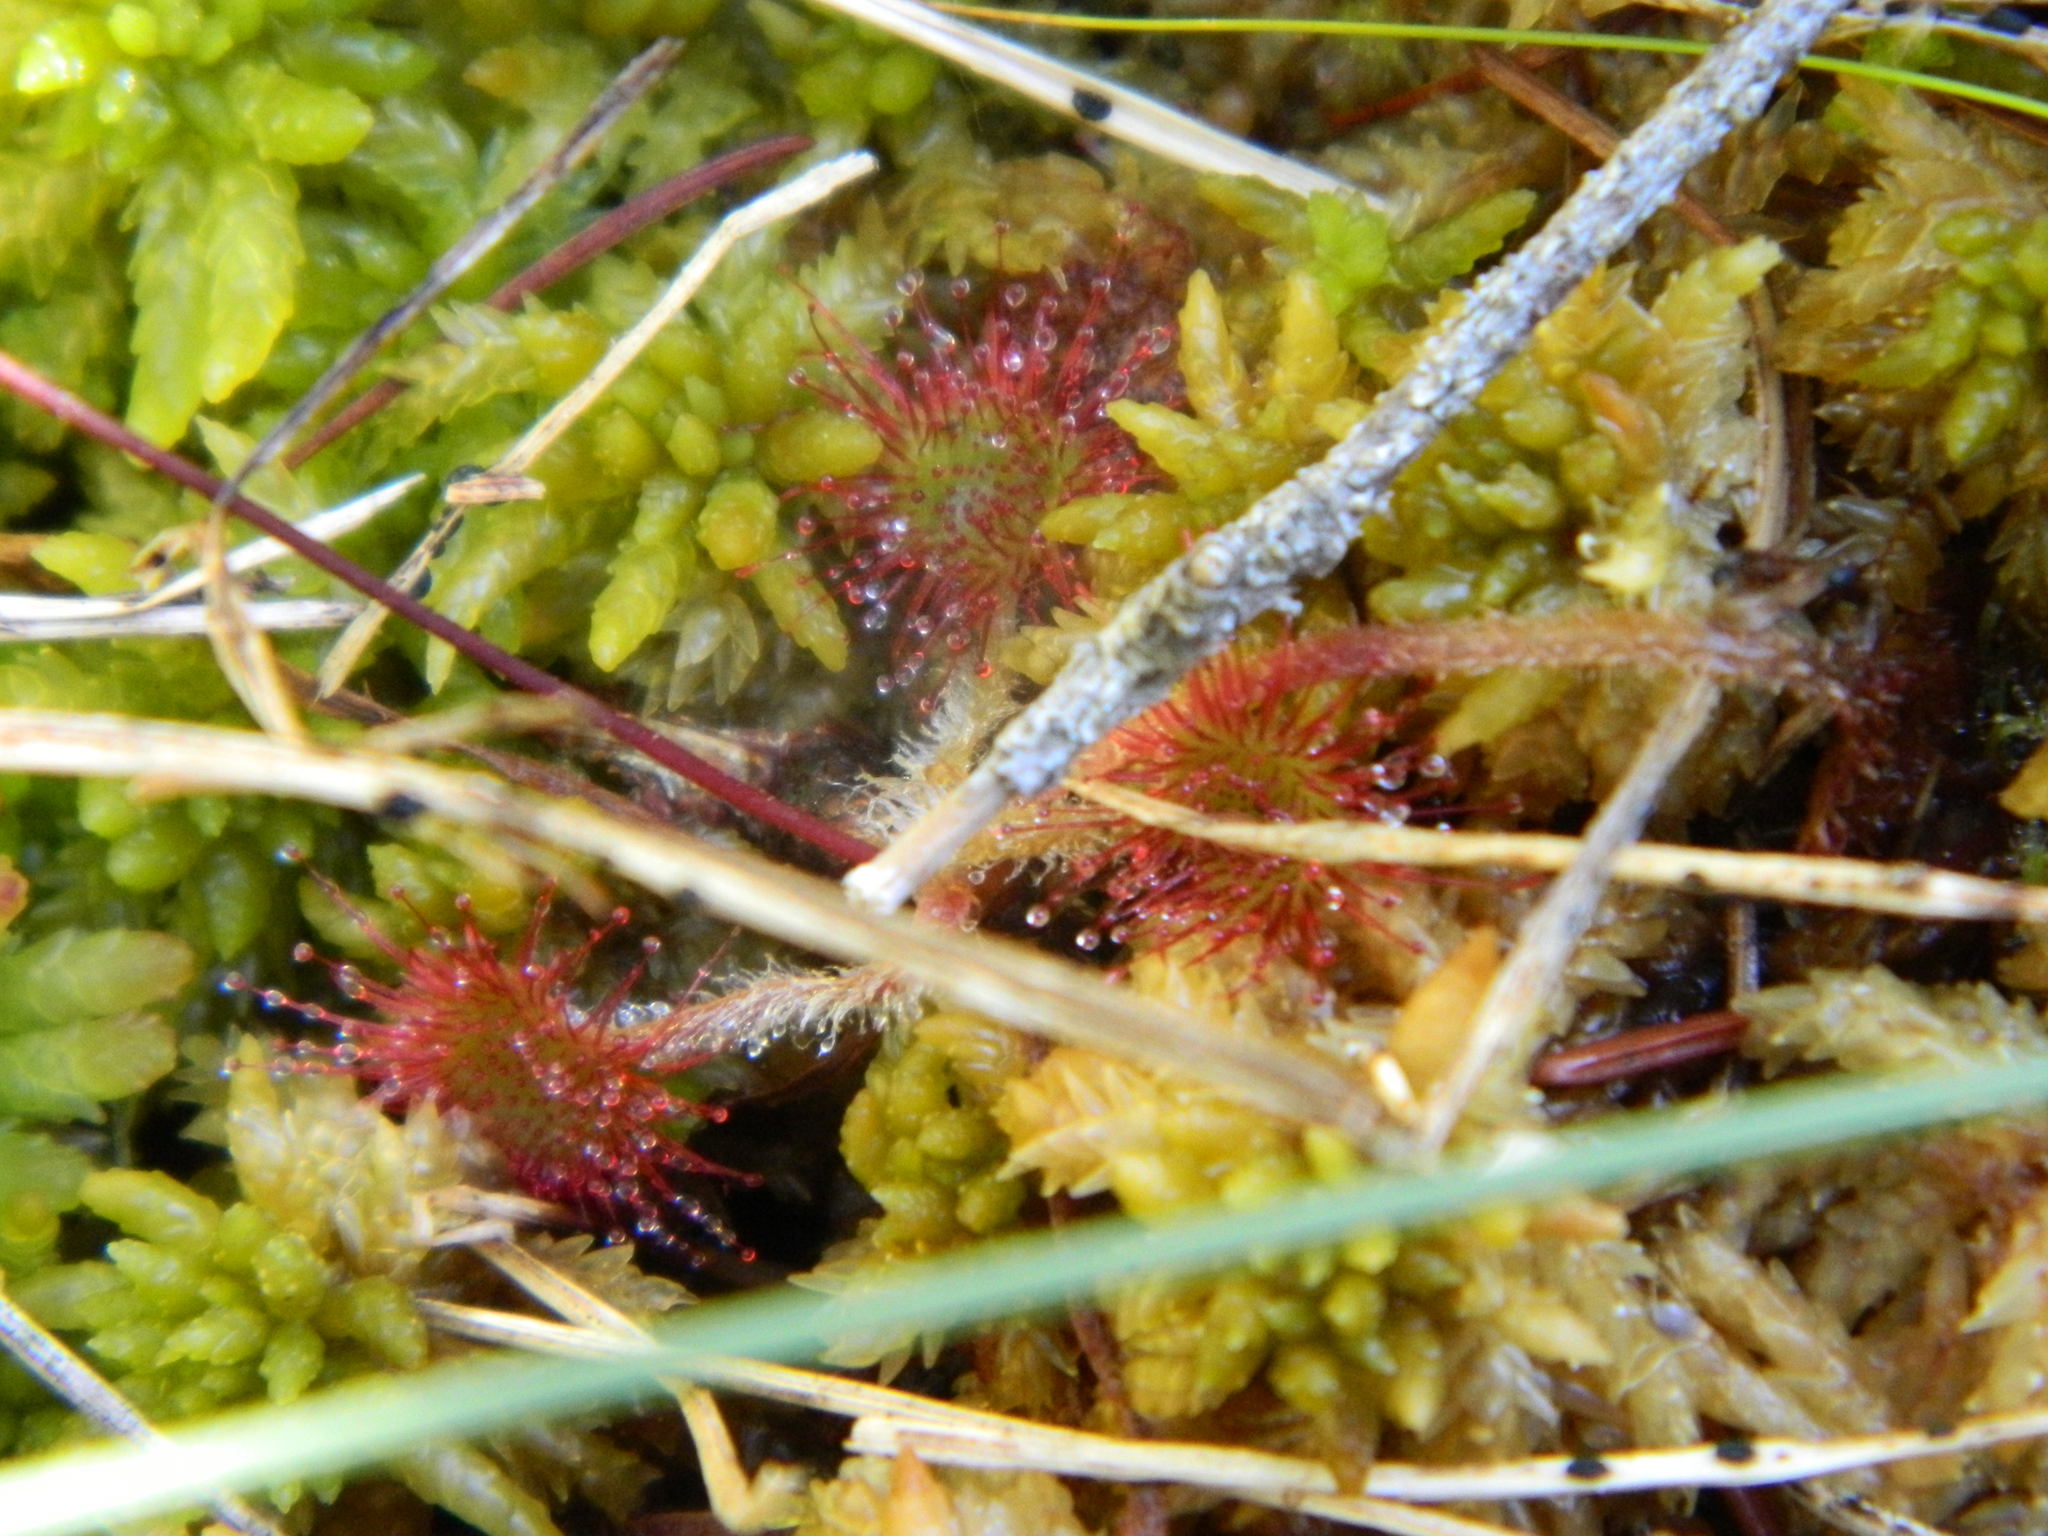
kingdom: Plantae
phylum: Tracheophyta
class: Magnoliopsida
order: Caryophyllales
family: Droseraceae
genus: Drosera
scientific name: Drosera rotundifolia
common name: Round-leaved sundew
